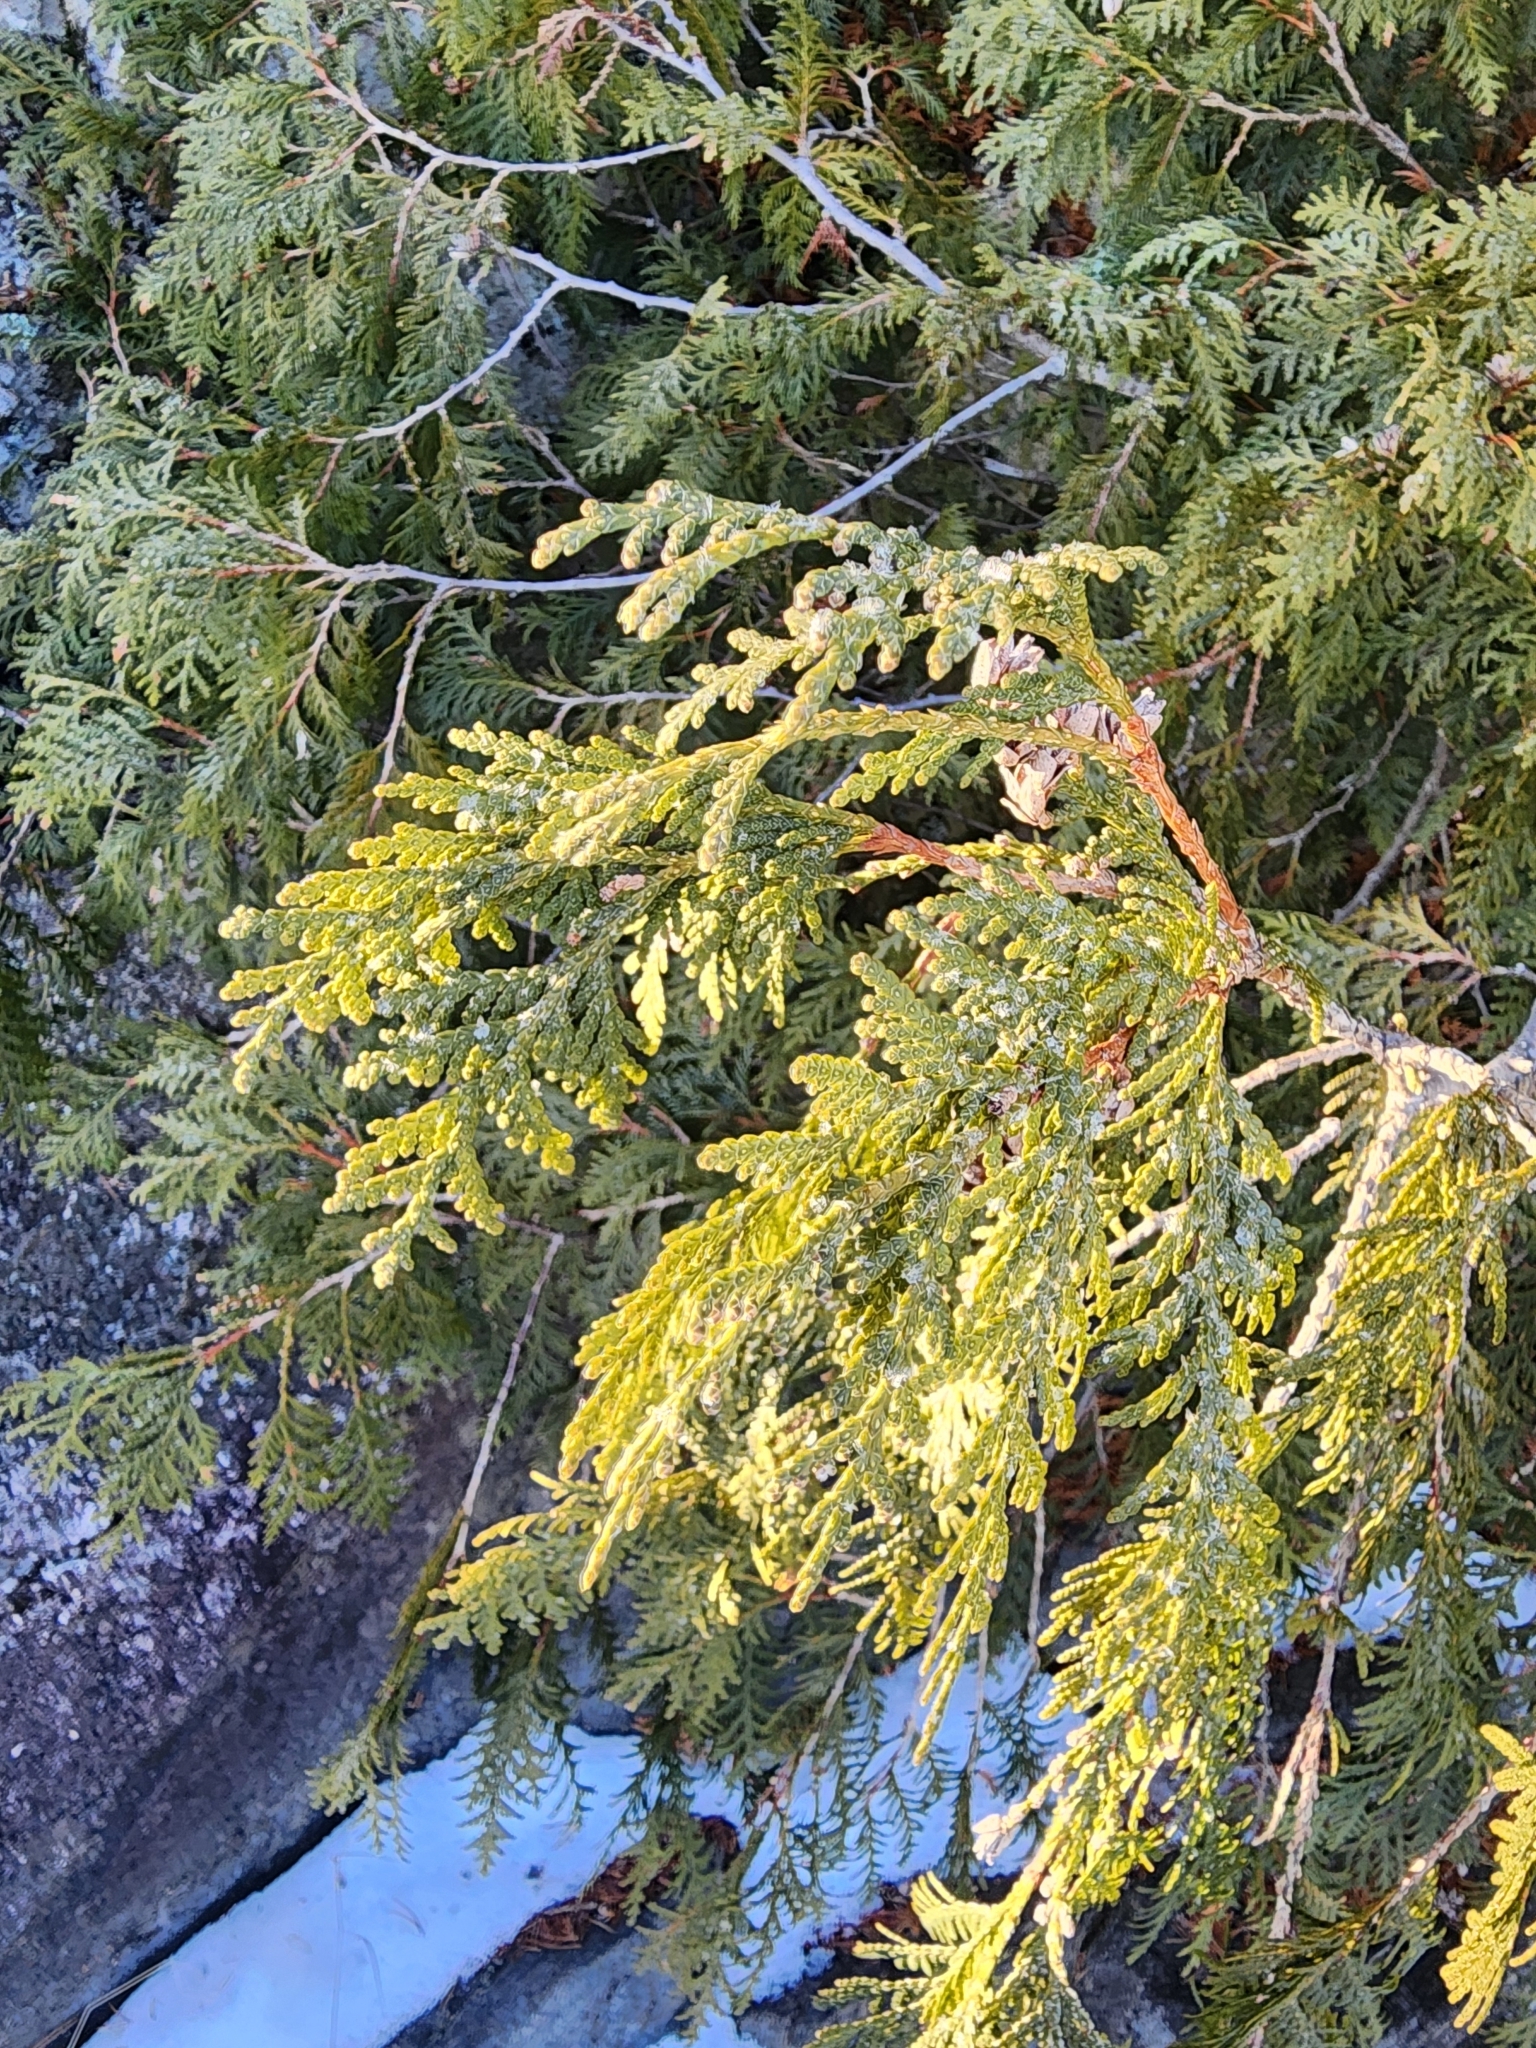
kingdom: Plantae
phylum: Tracheophyta
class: Pinopsida
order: Pinales
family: Cupressaceae
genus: Thuja
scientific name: Thuja occidentalis
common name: Northern white-cedar
